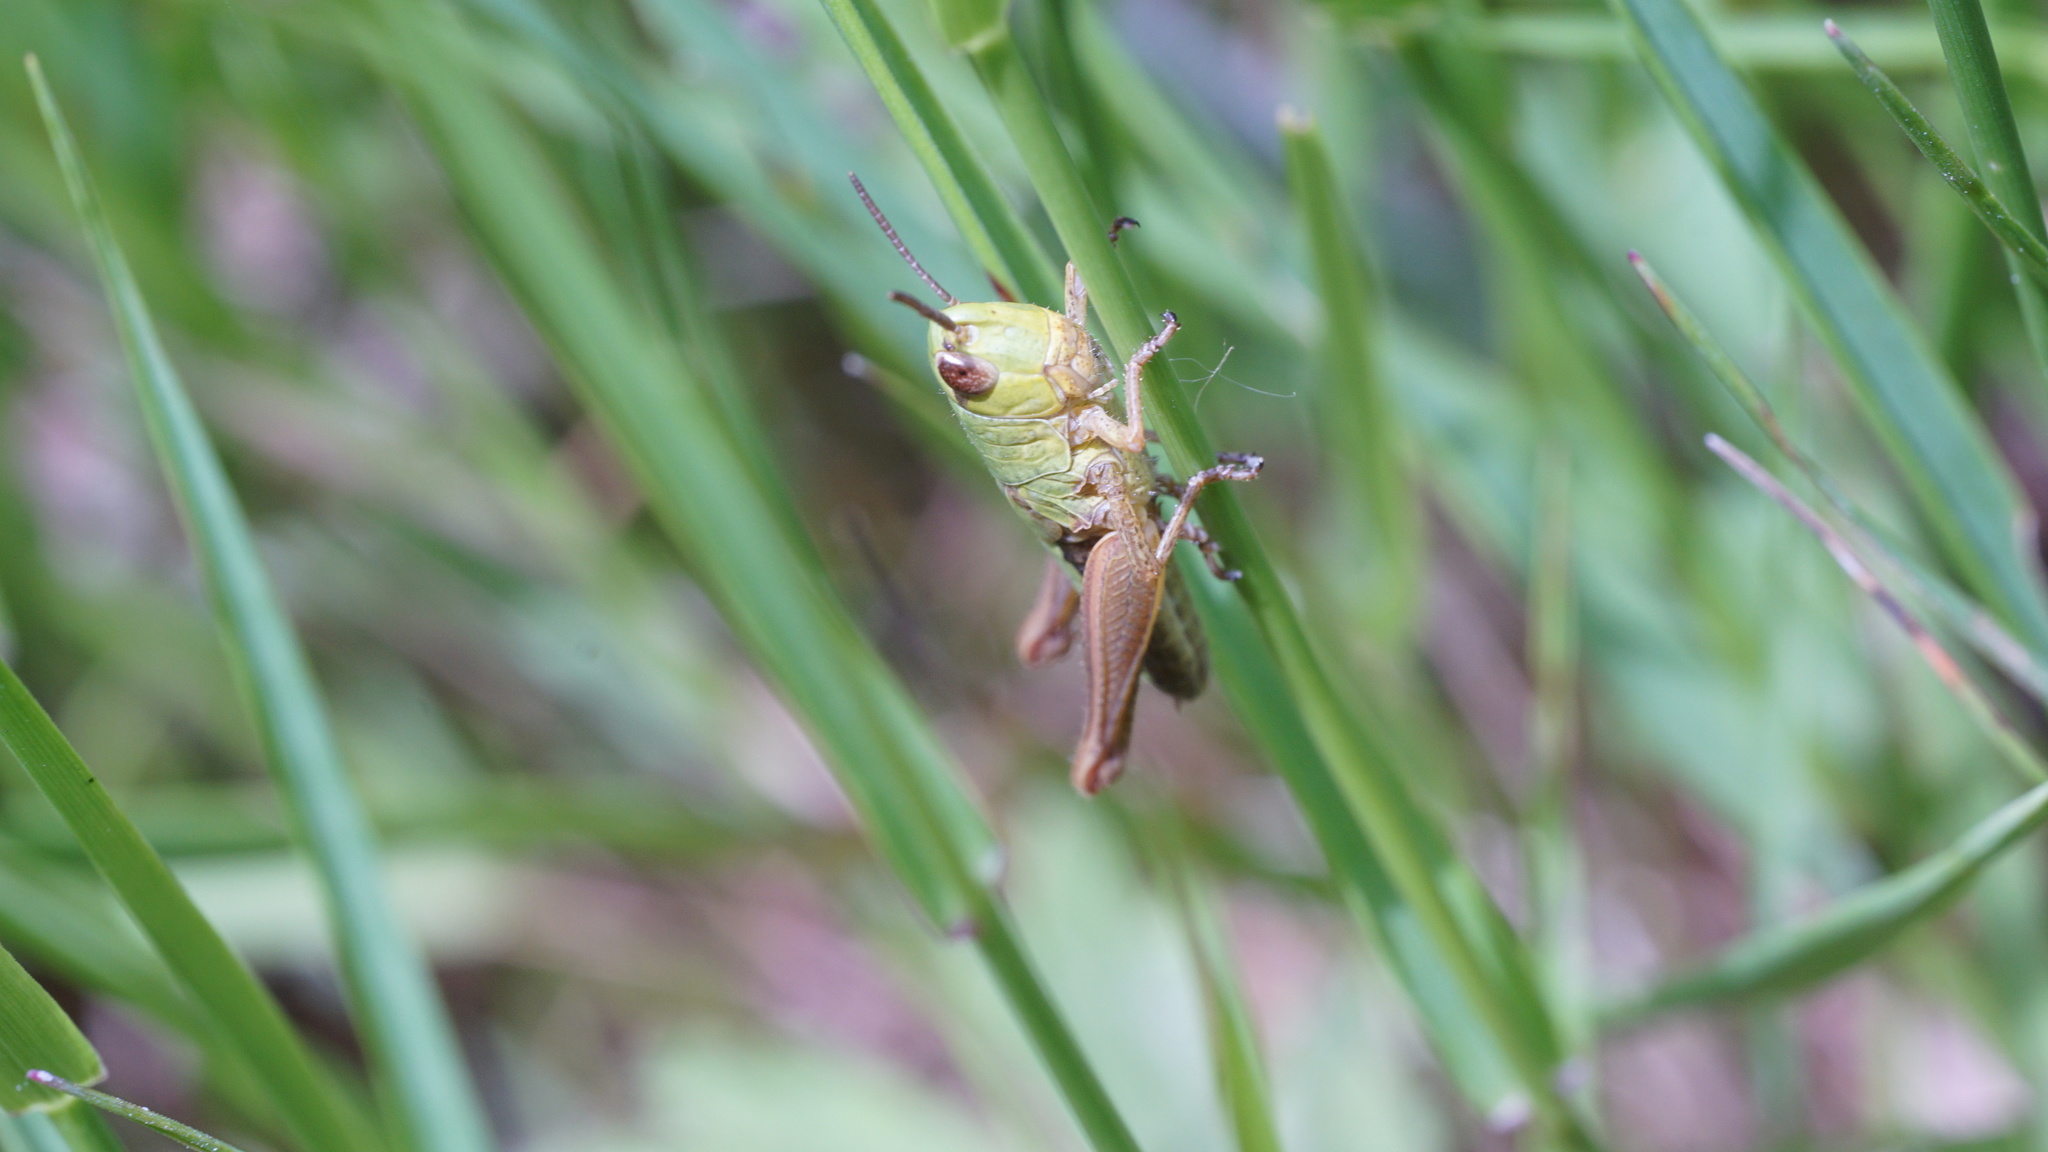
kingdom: Animalia
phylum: Arthropoda
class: Insecta
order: Orthoptera
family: Acrididae
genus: Pseudochorthippus
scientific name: Pseudochorthippus parallelus
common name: Meadow grasshopper
